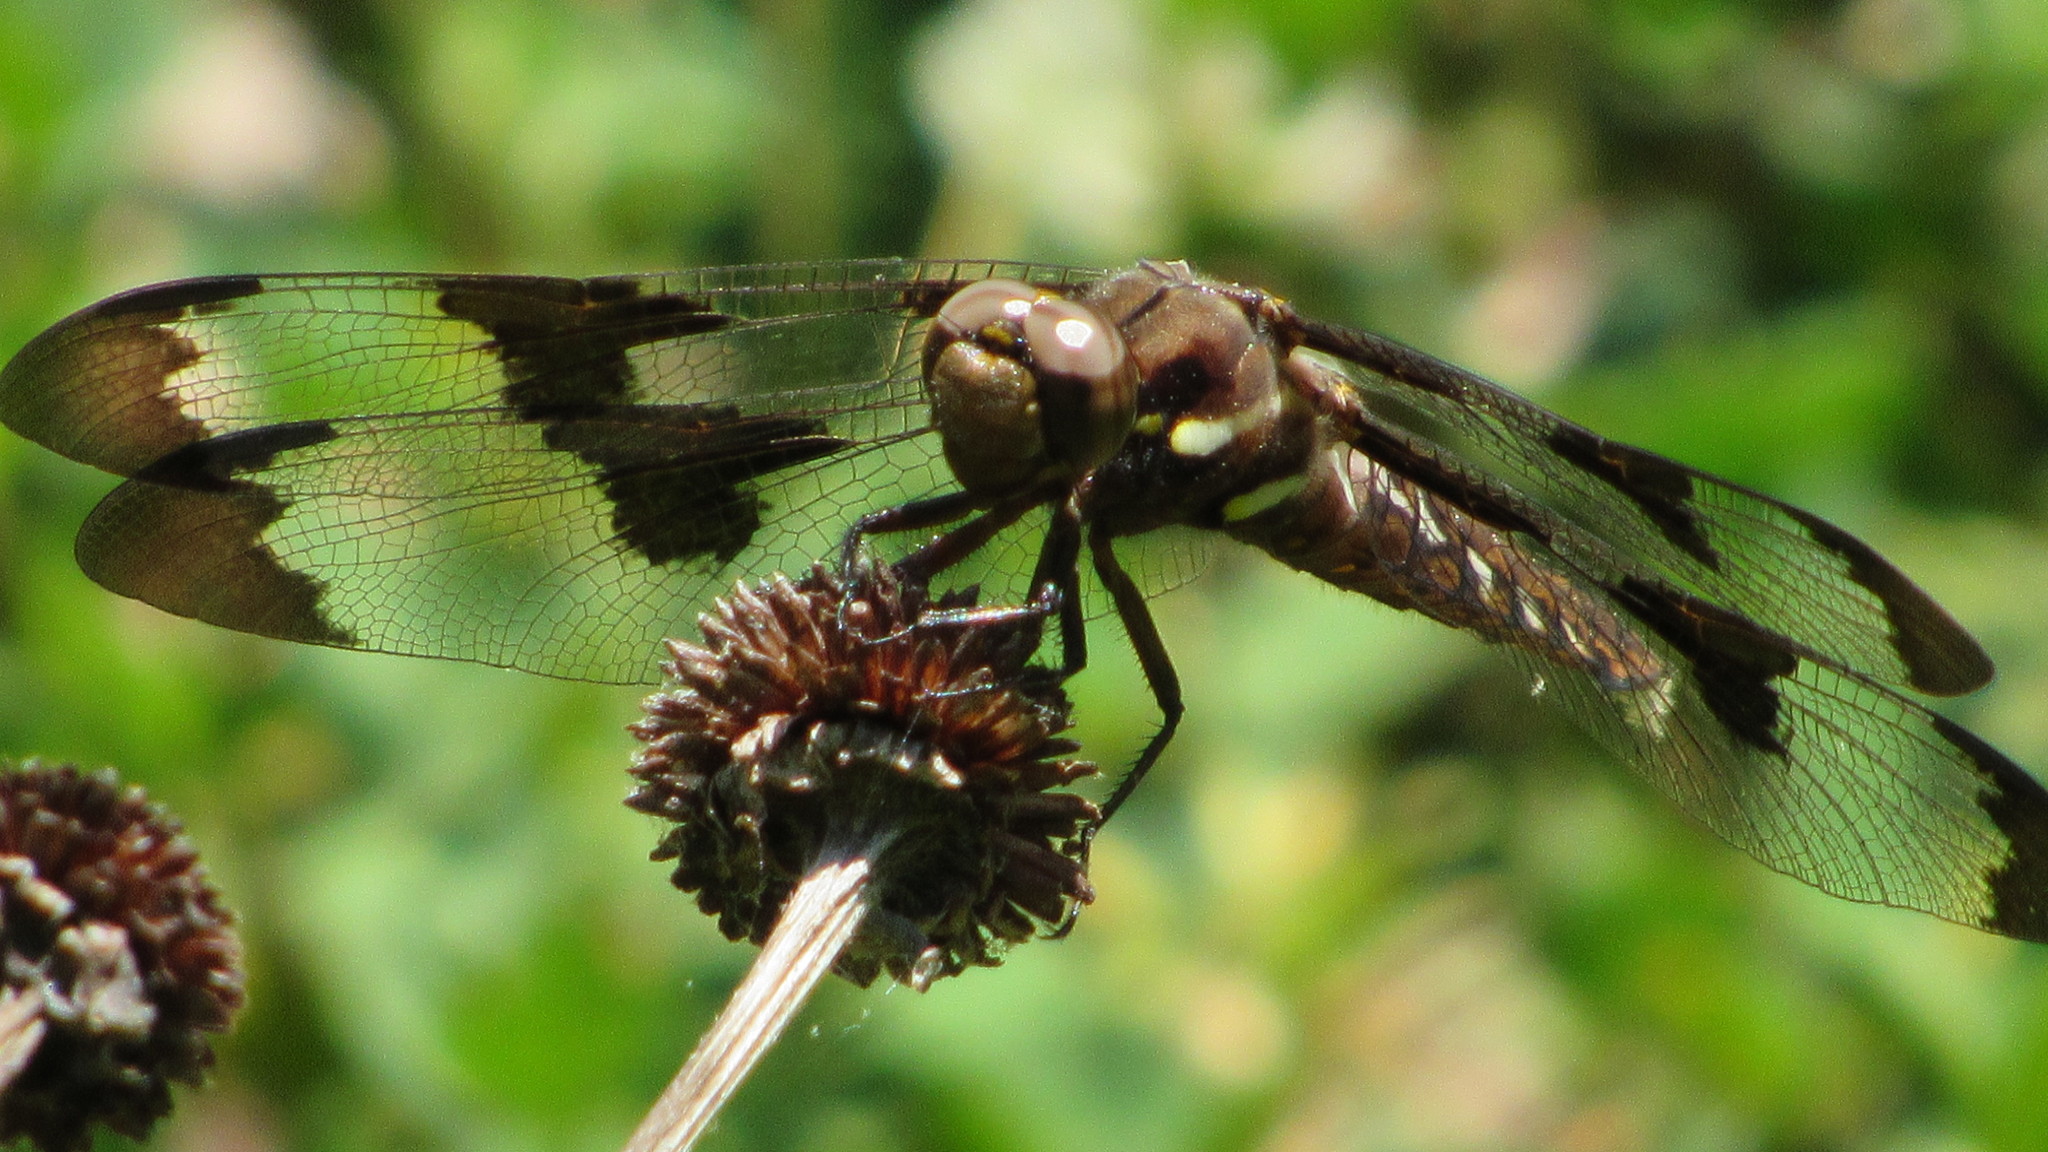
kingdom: Animalia
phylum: Arthropoda
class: Insecta
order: Odonata
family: Libellulidae
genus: Plathemis
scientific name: Plathemis lydia
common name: Common whitetail
